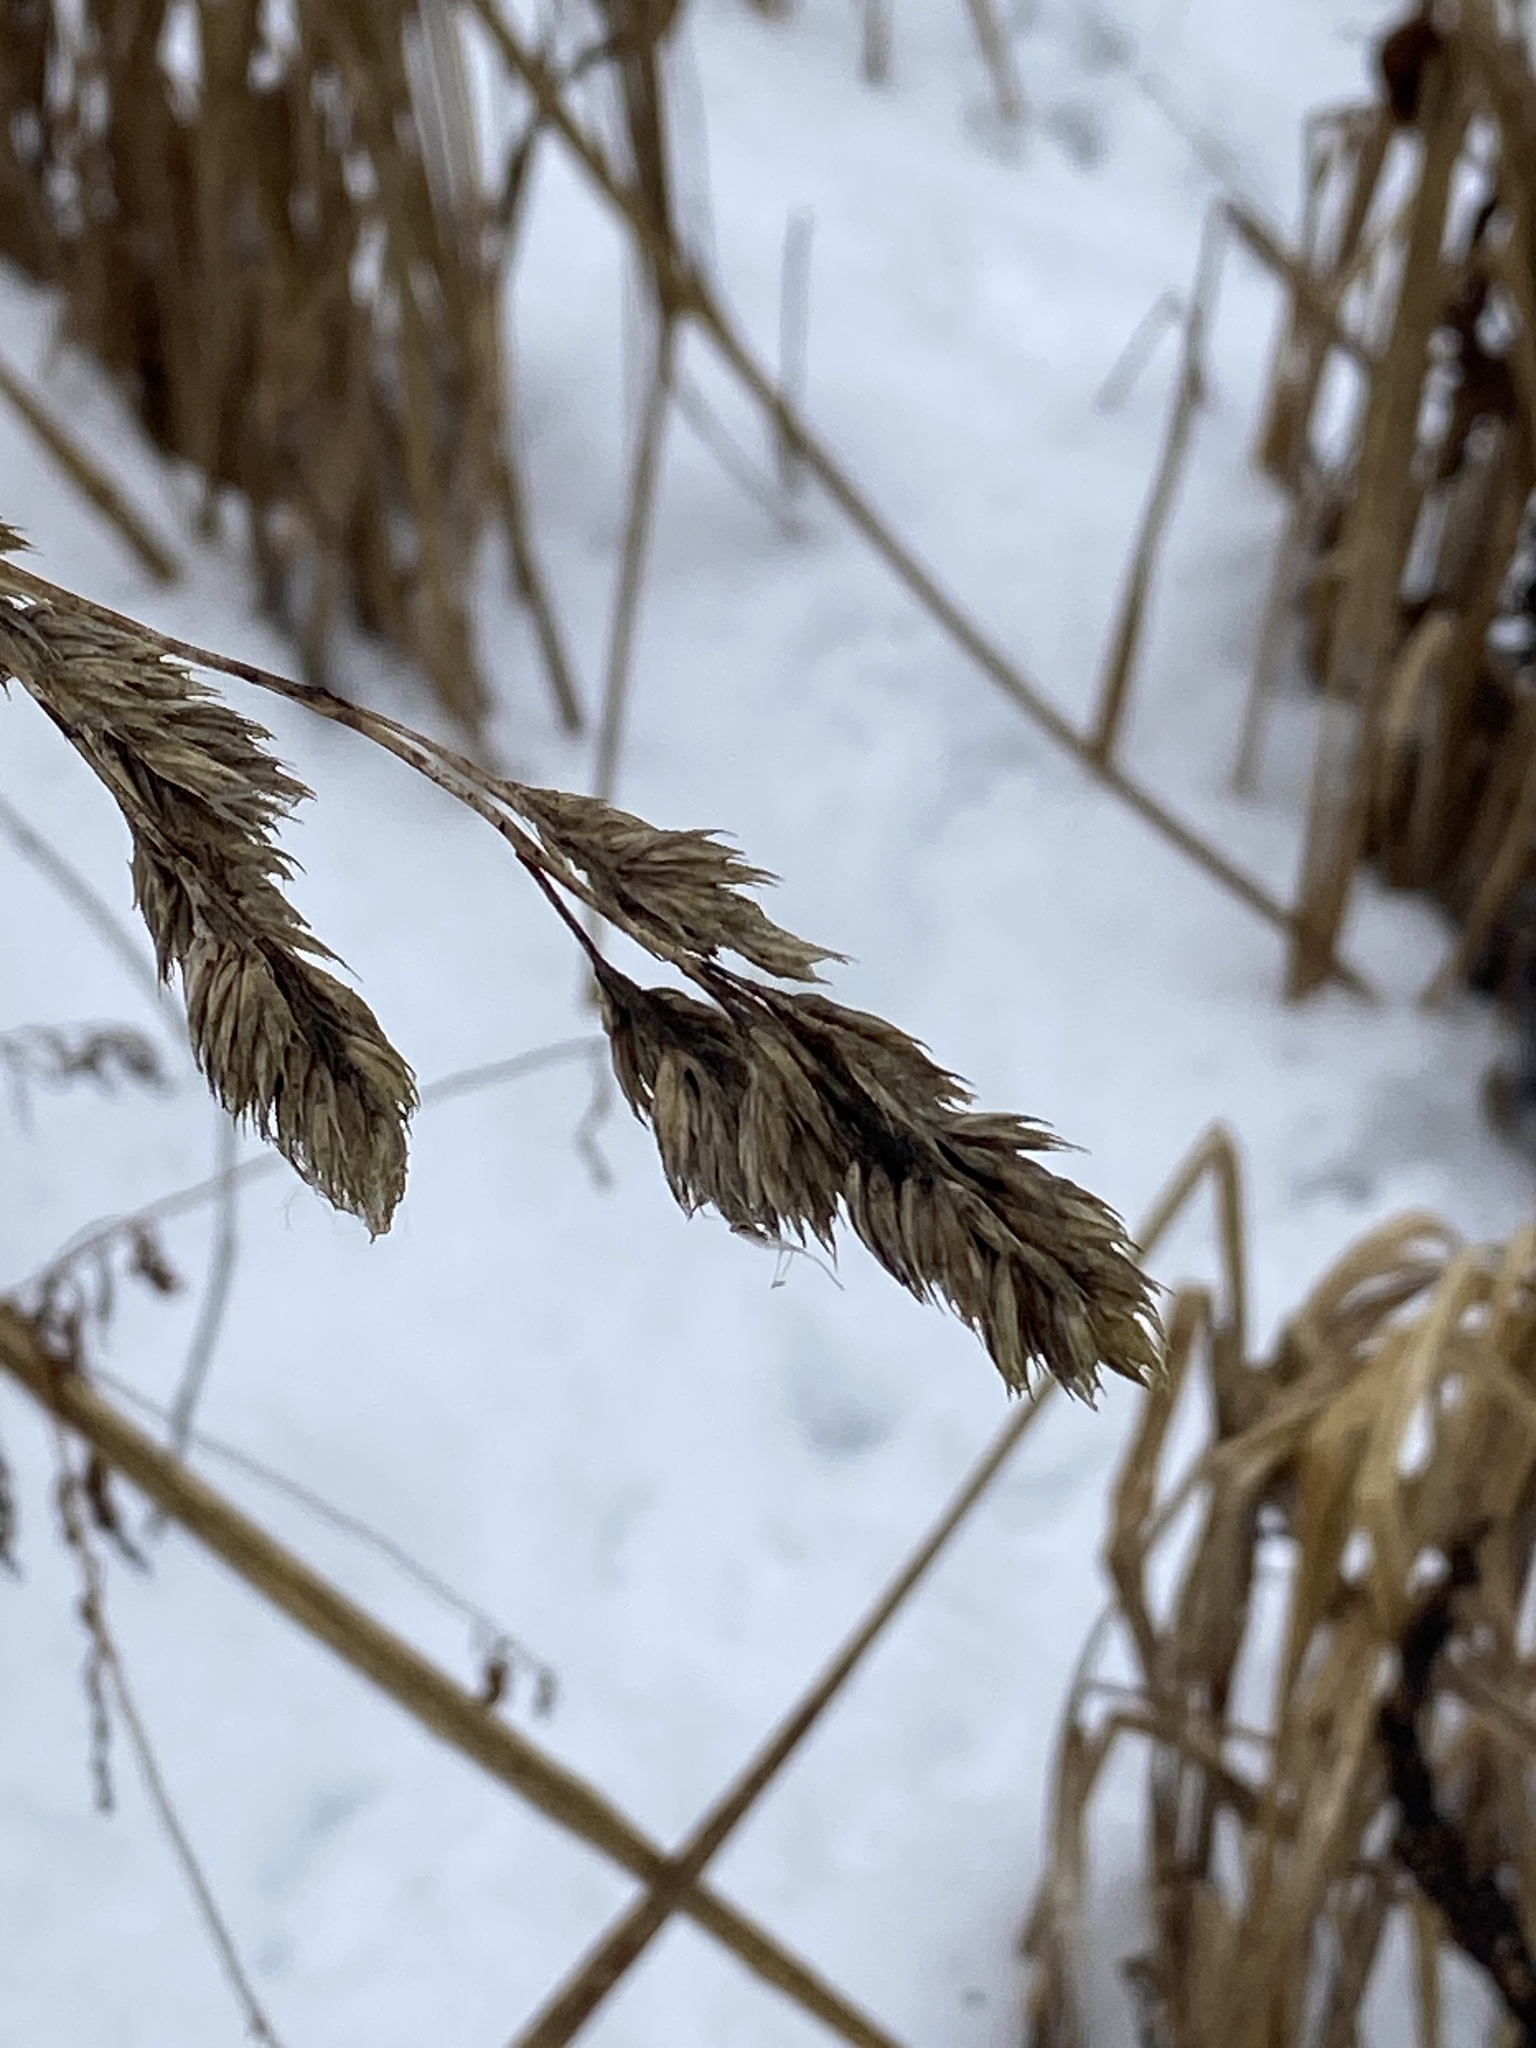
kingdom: Plantae
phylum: Tracheophyta
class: Liliopsida
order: Poales
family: Poaceae
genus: Dactylis
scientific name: Dactylis glomerata
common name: Orchardgrass
